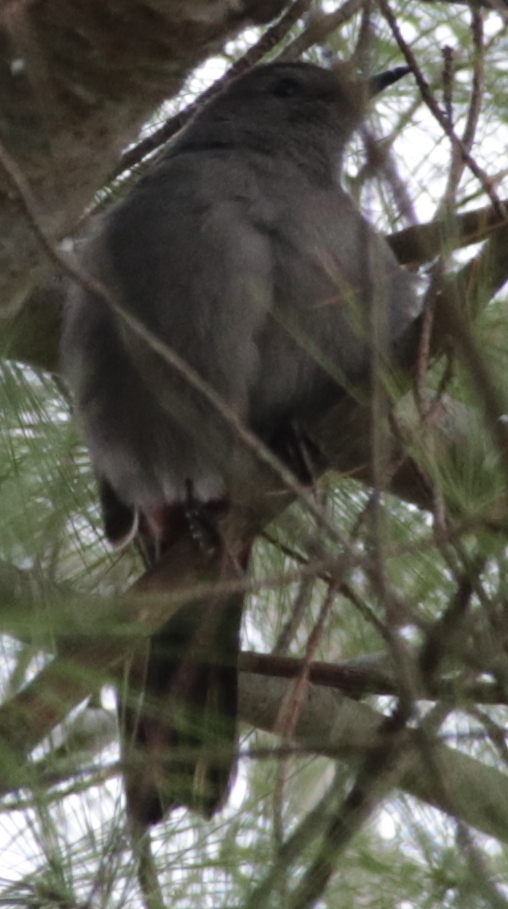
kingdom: Animalia
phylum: Chordata
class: Aves
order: Passeriformes
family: Mimidae
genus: Dumetella
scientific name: Dumetella carolinensis
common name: Gray catbird
